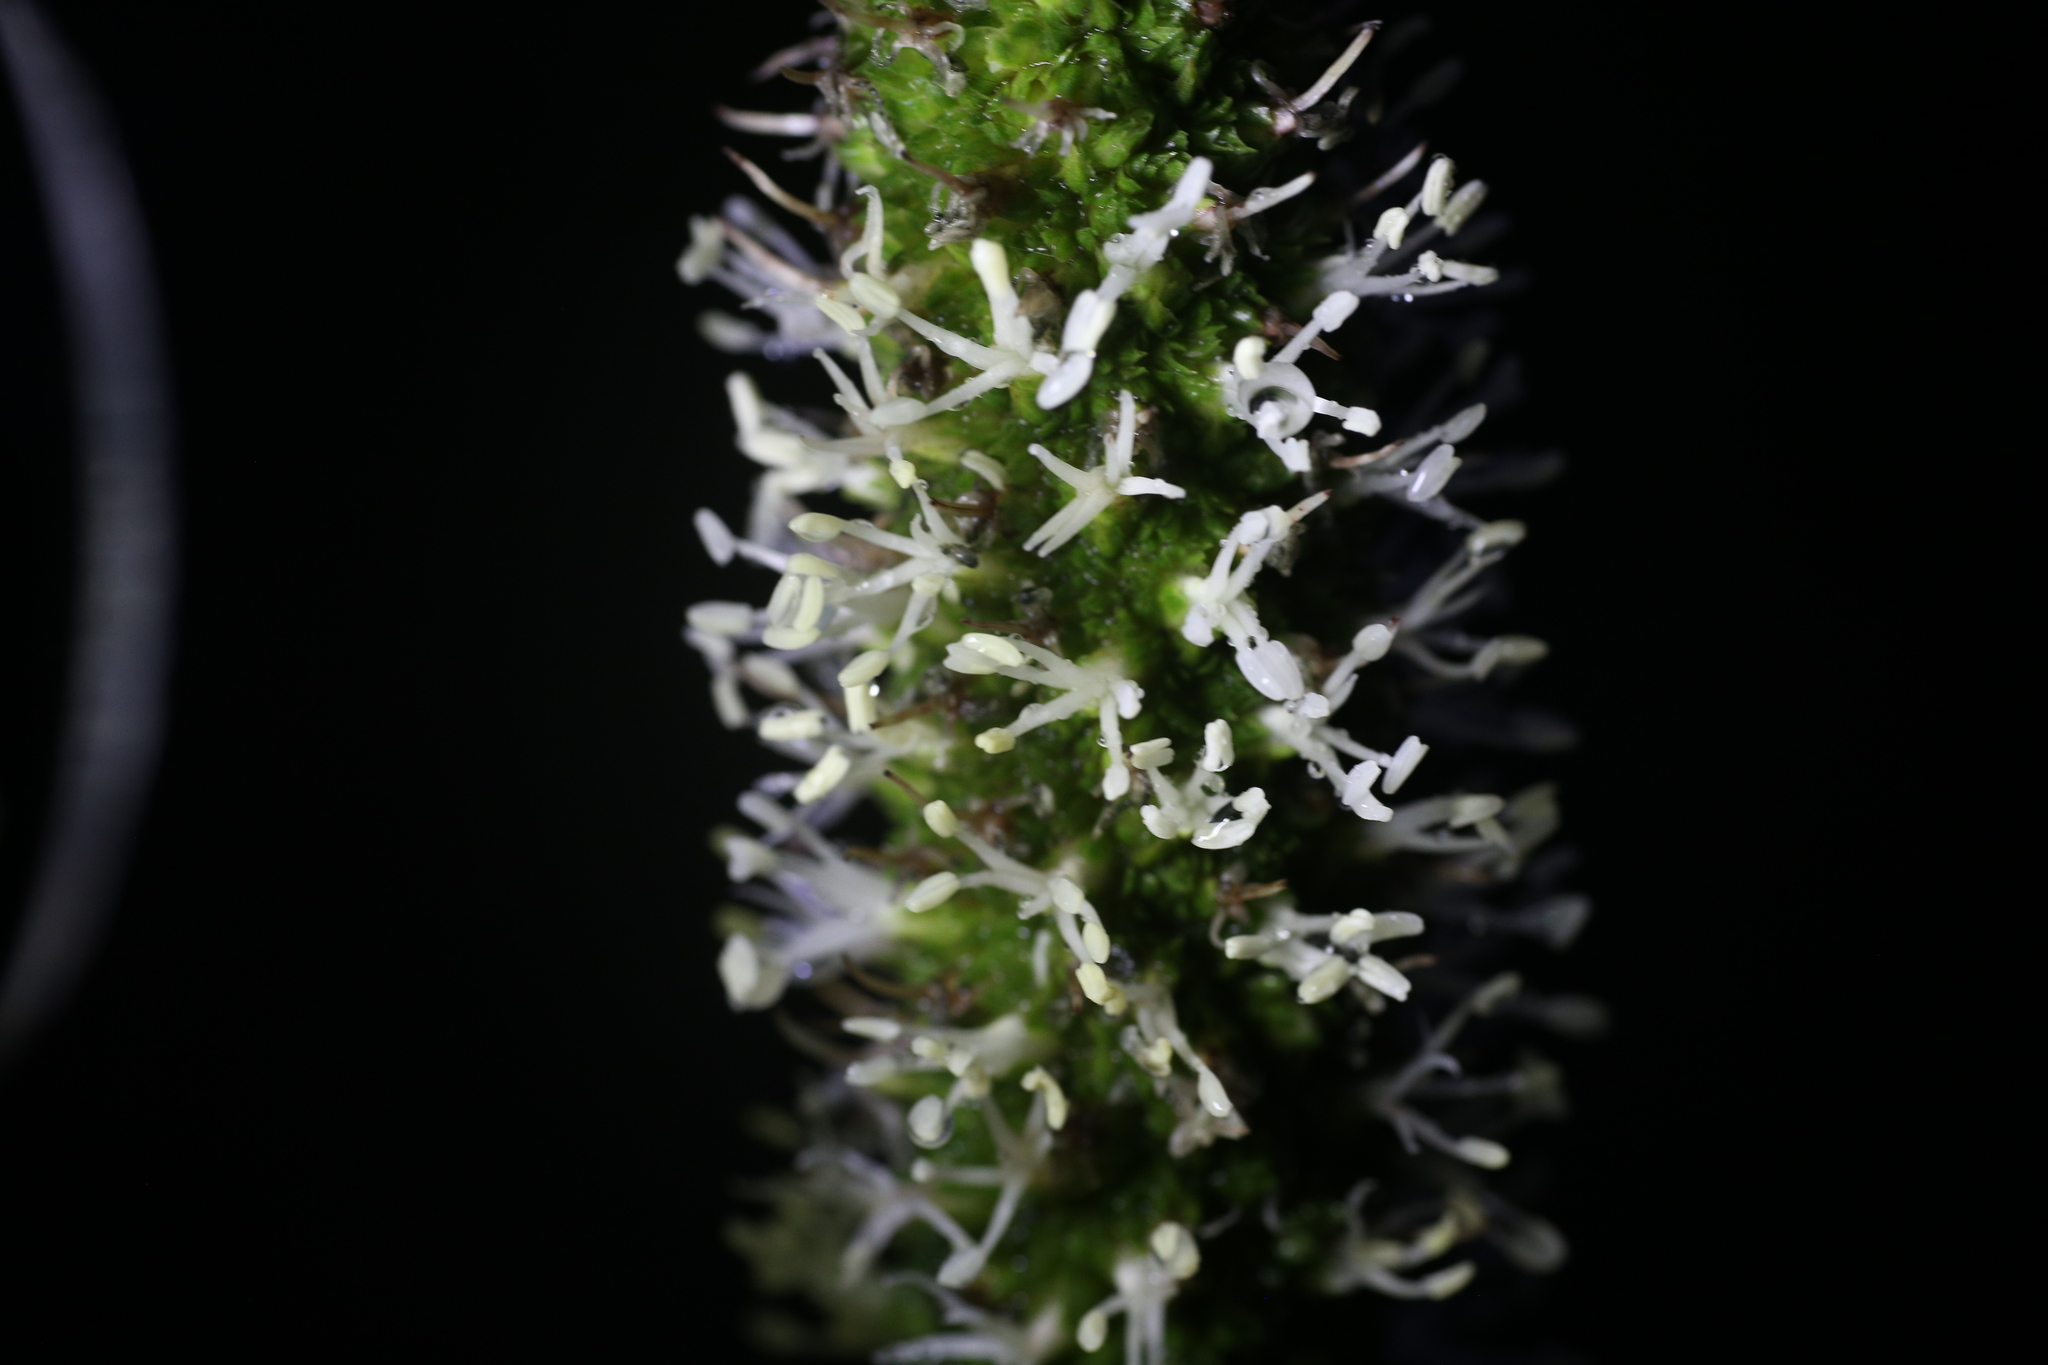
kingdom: Plantae
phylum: Tracheophyta
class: Liliopsida
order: Asparagales
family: Asphodelaceae
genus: Xanthorrhoea
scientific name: Xanthorrhoea johnsonii
